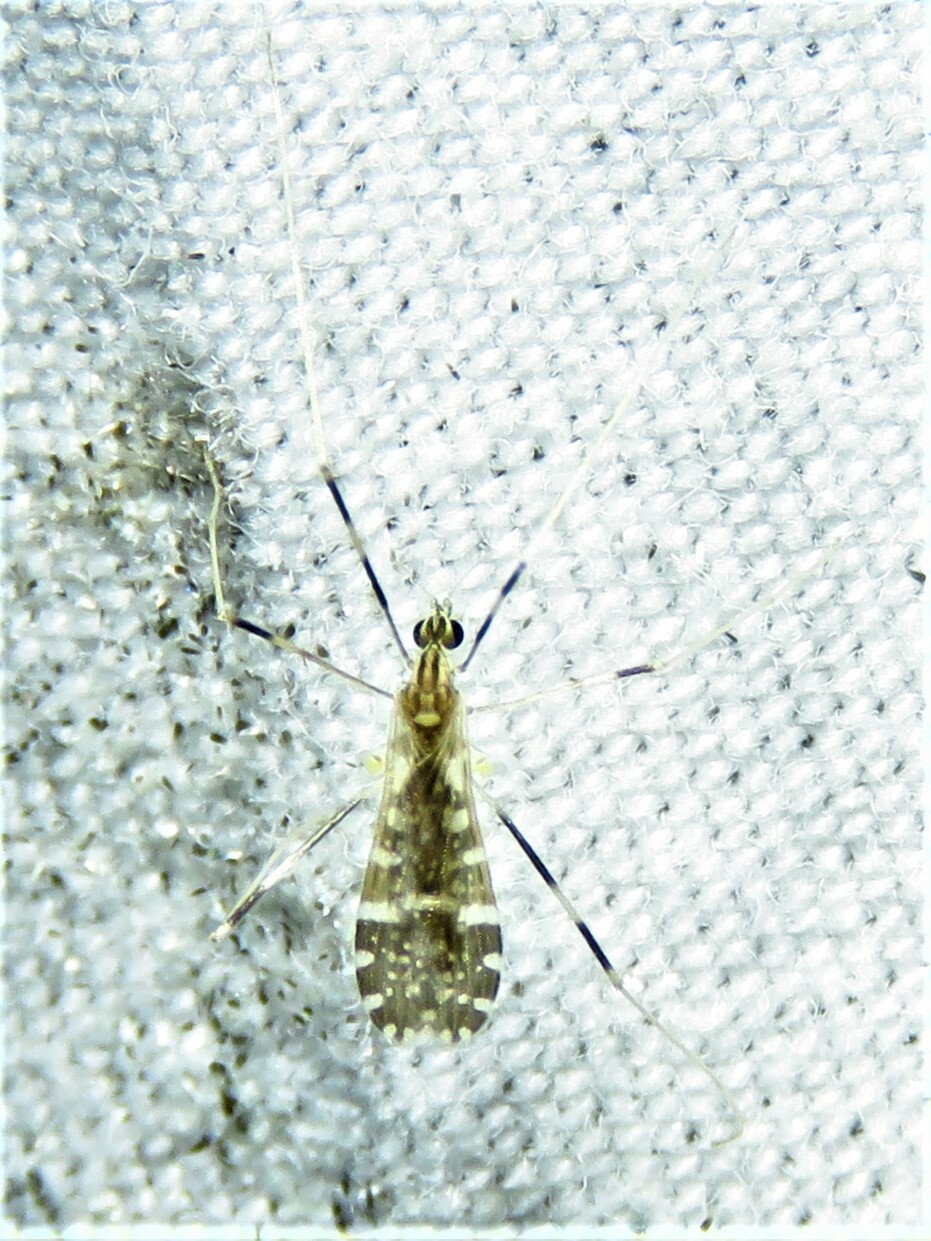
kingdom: Animalia
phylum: Arthropoda
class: Insecta
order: Diptera
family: Limoniidae
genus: Erioptera
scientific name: Erioptera caliptera
